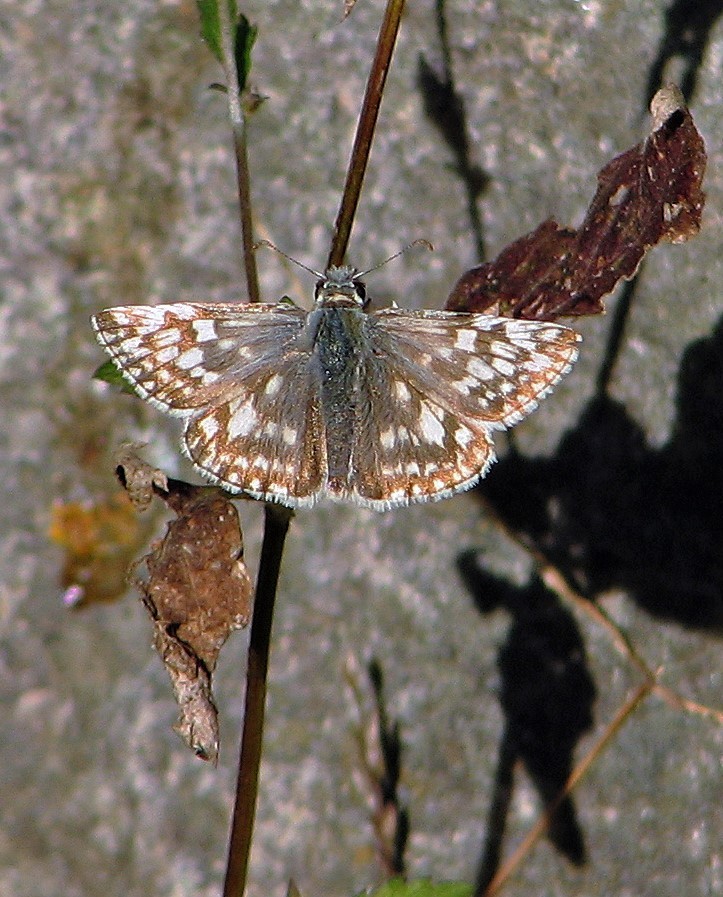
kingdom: Animalia
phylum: Arthropoda
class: Insecta
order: Lepidoptera
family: Hesperiidae
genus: Heliopetes
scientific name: Heliopetes americanus
